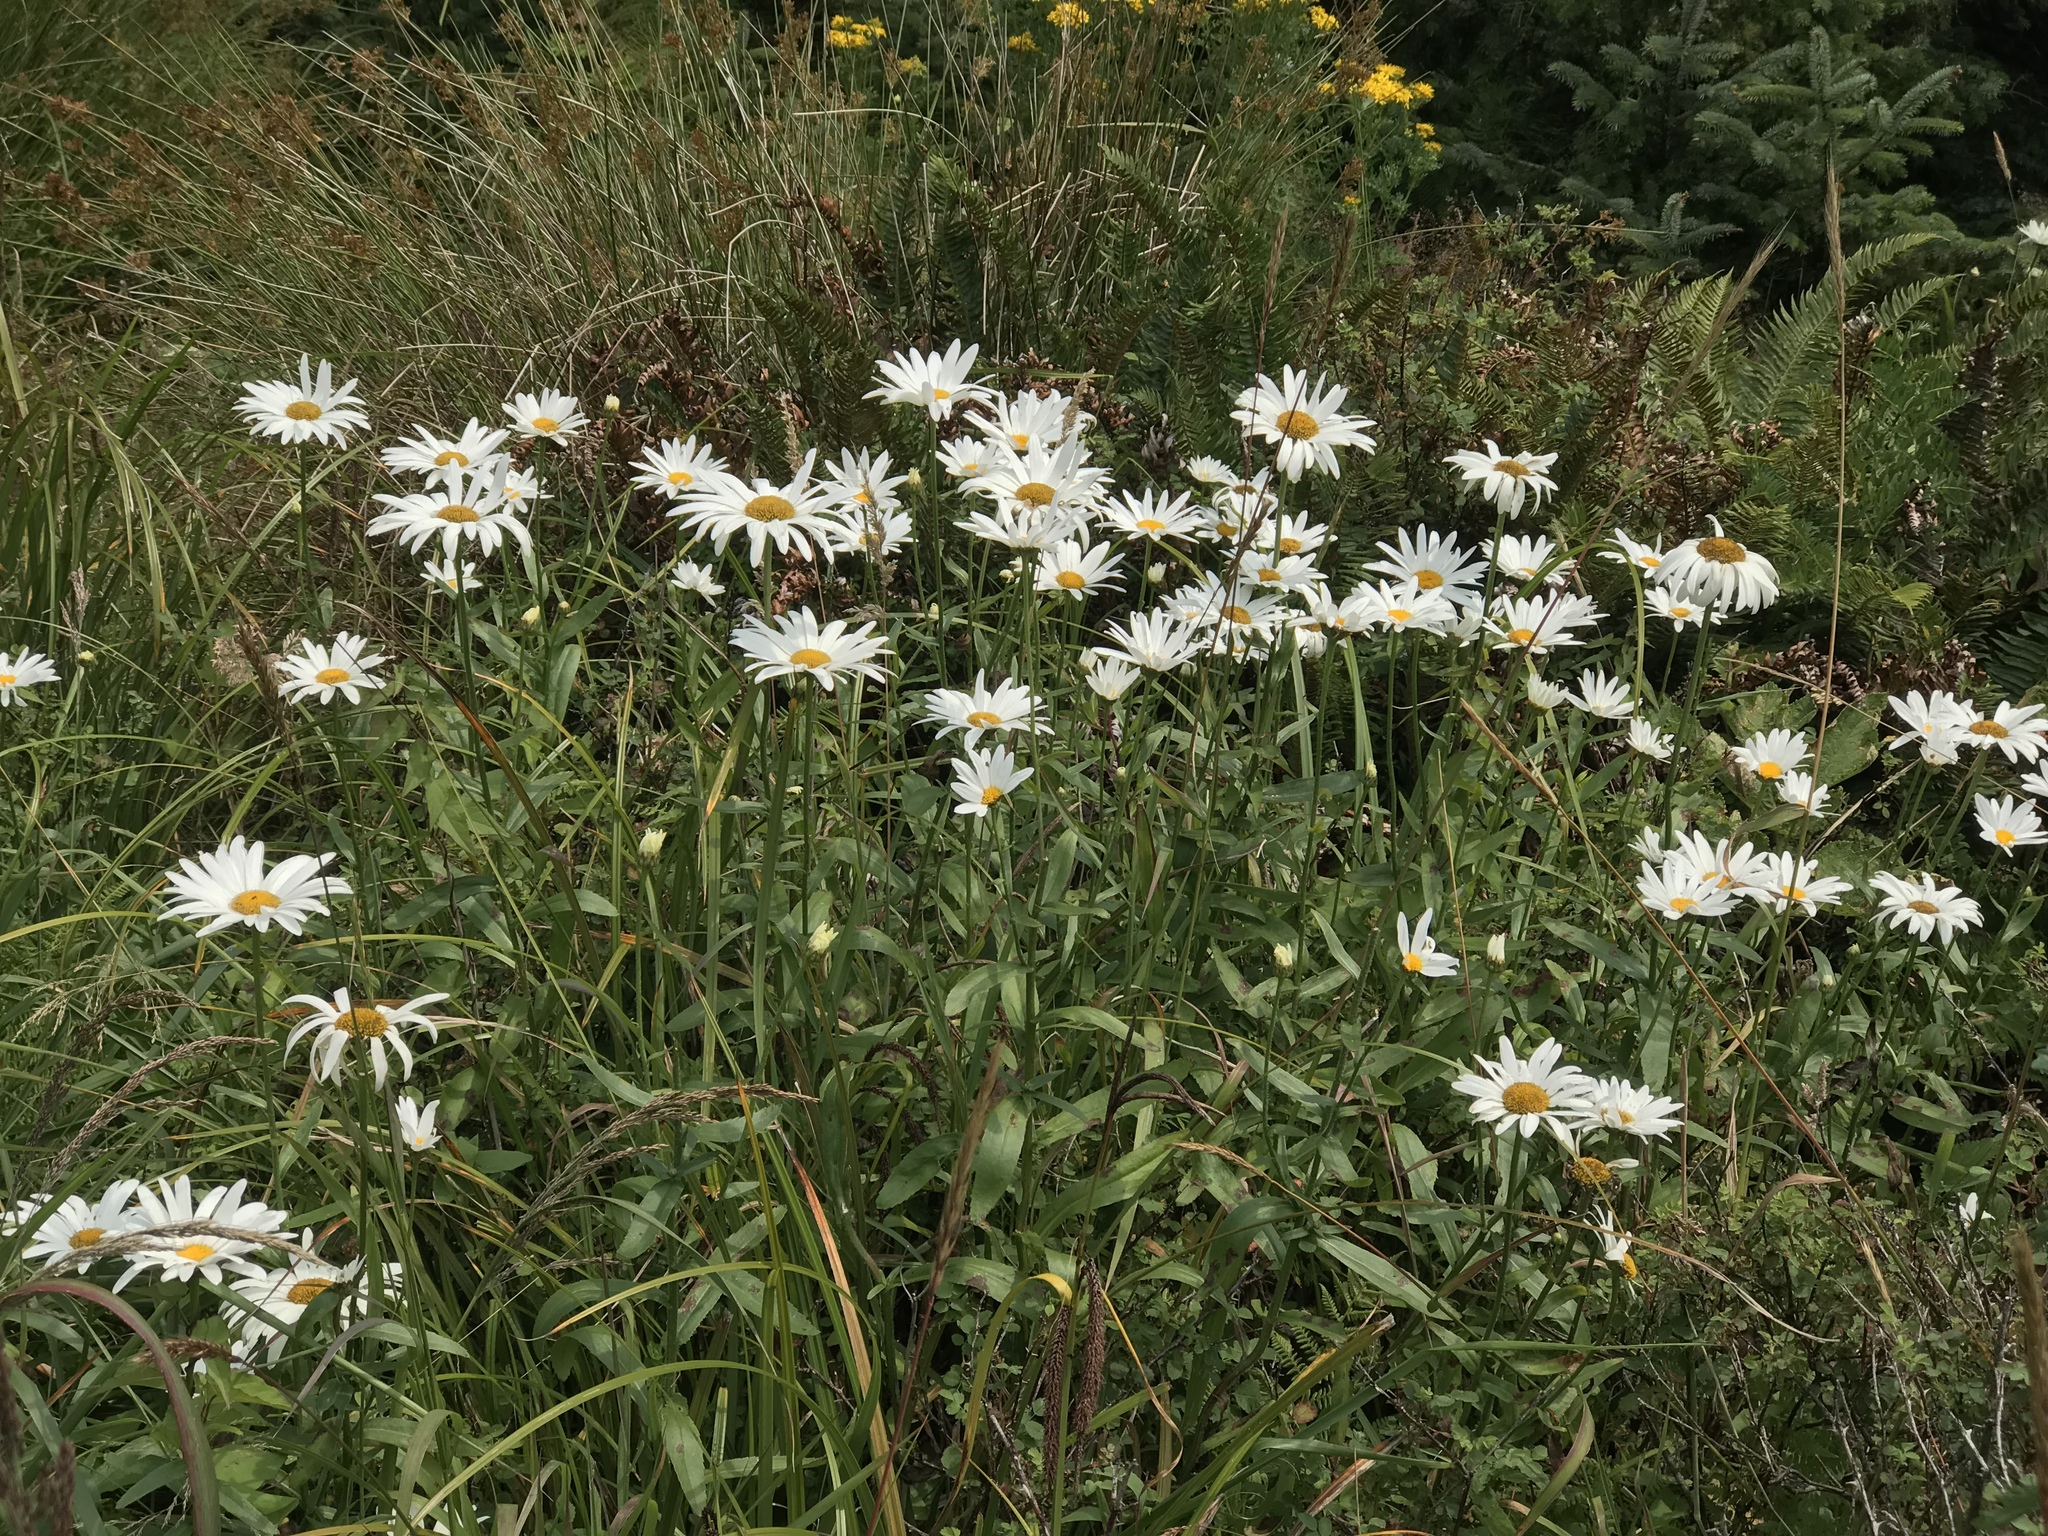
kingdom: Plantae
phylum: Tracheophyta
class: Magnoliopsida
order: Asterales
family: Asteraceae
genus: Leucanthemum
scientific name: Leucanthemum vulgare
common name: Oxeye daisy
